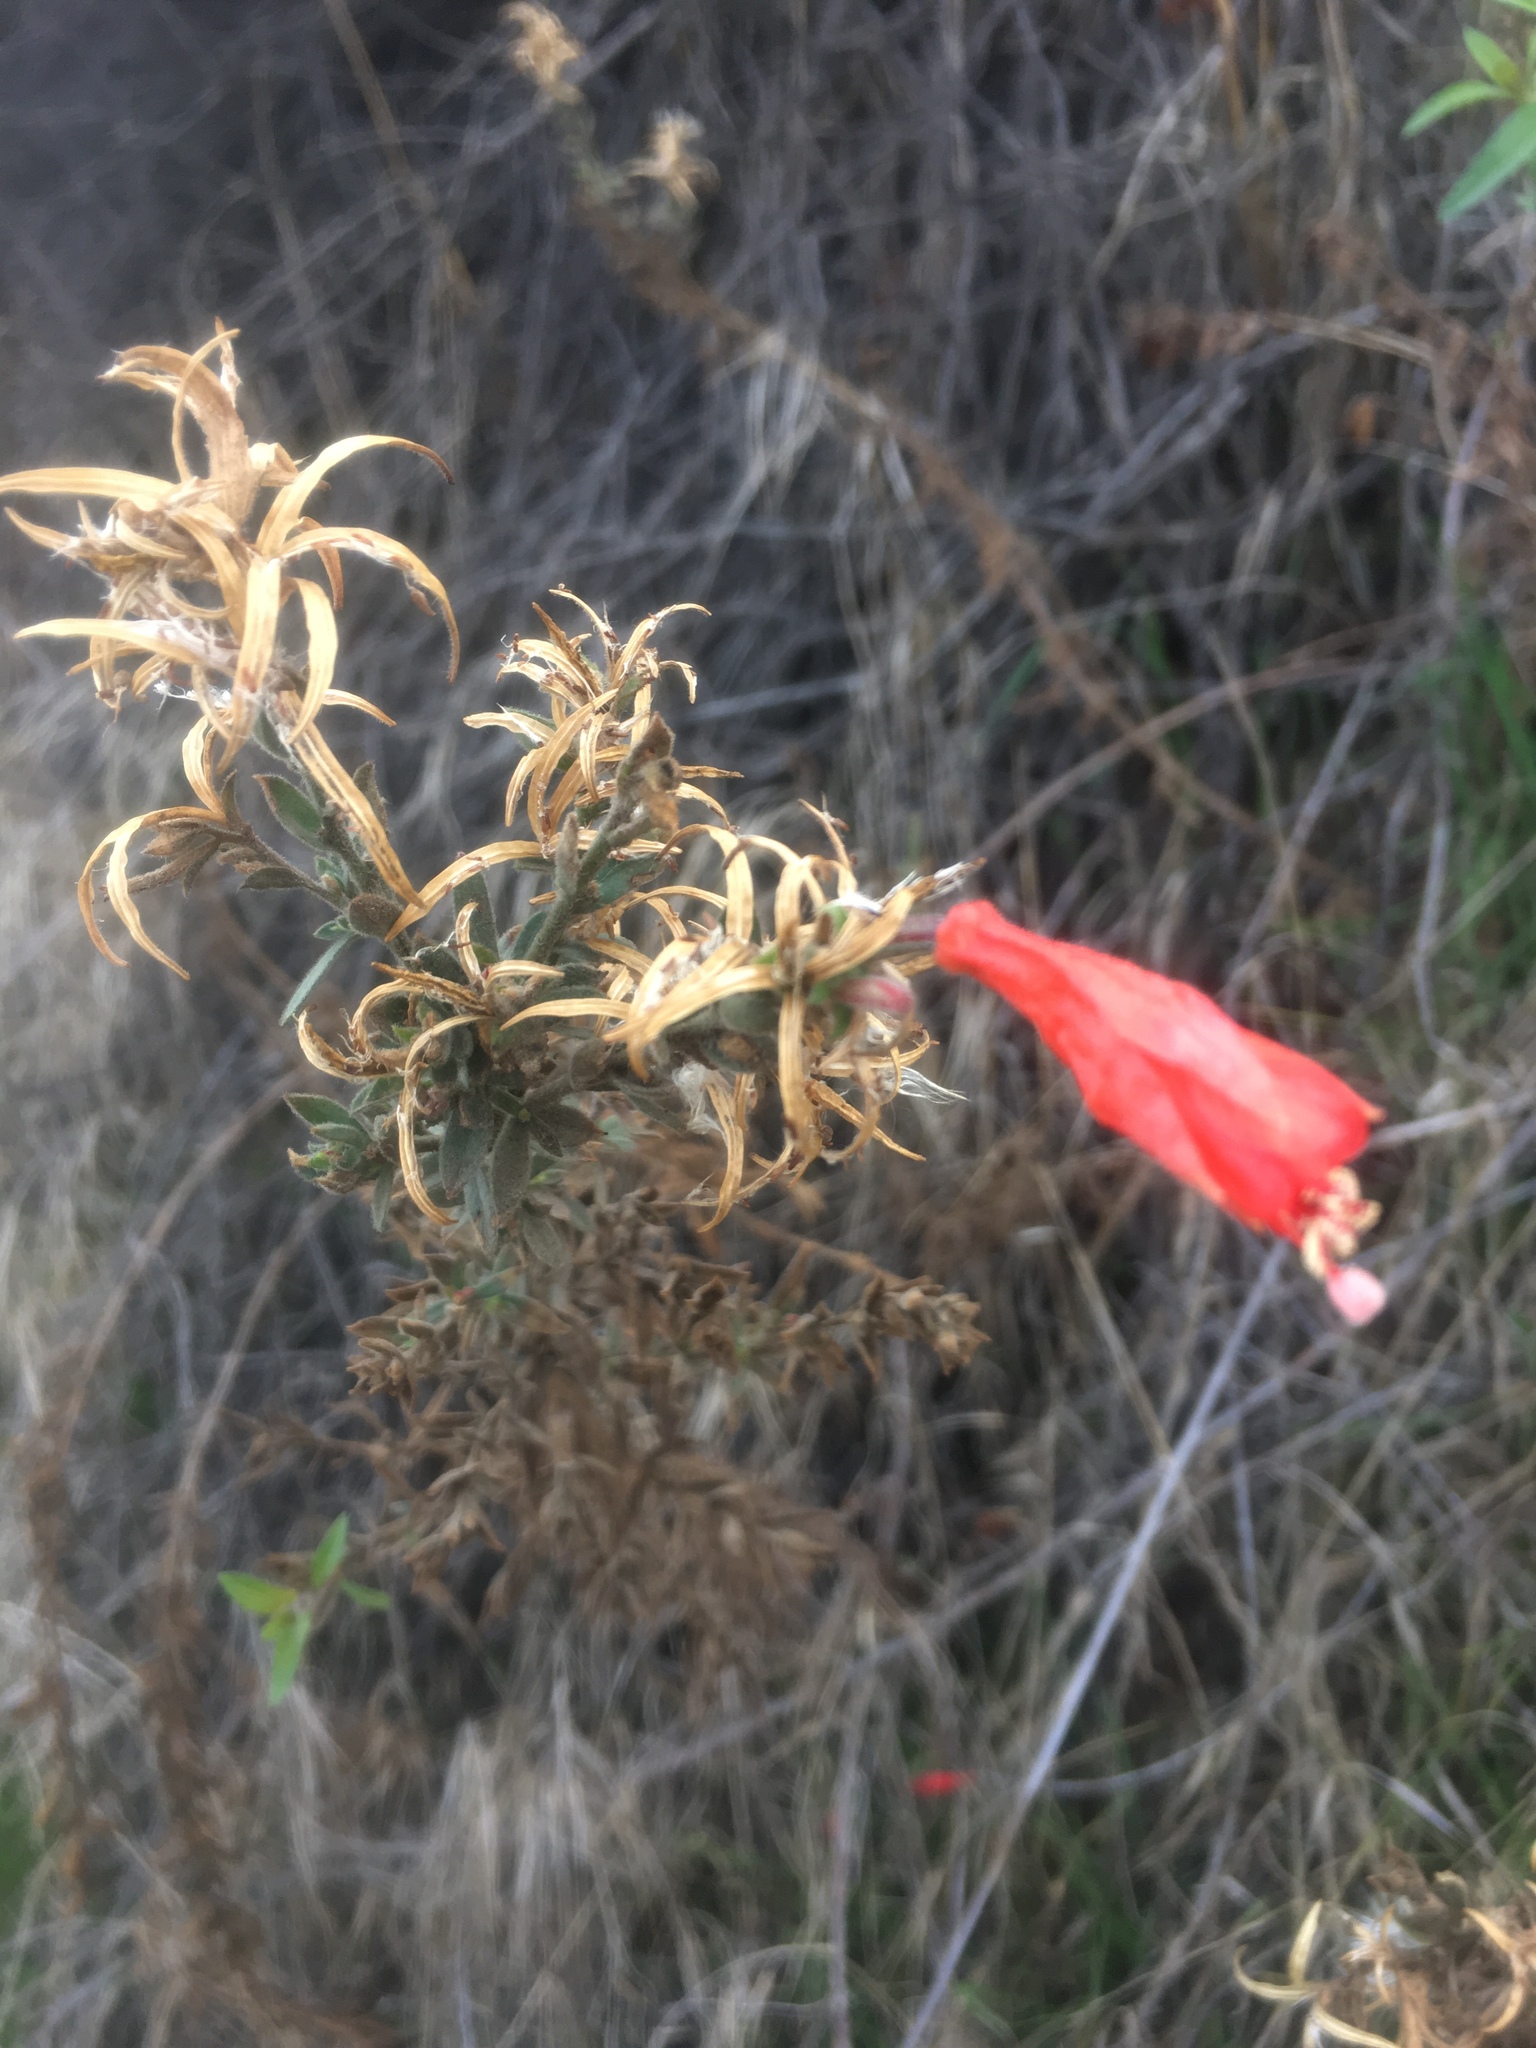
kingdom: Plantae
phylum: Tracheophyta
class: Magnoliopsida
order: Myrtales
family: Onagraceae
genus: Epilobium
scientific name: Epilobium canum
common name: California-fuchsia
